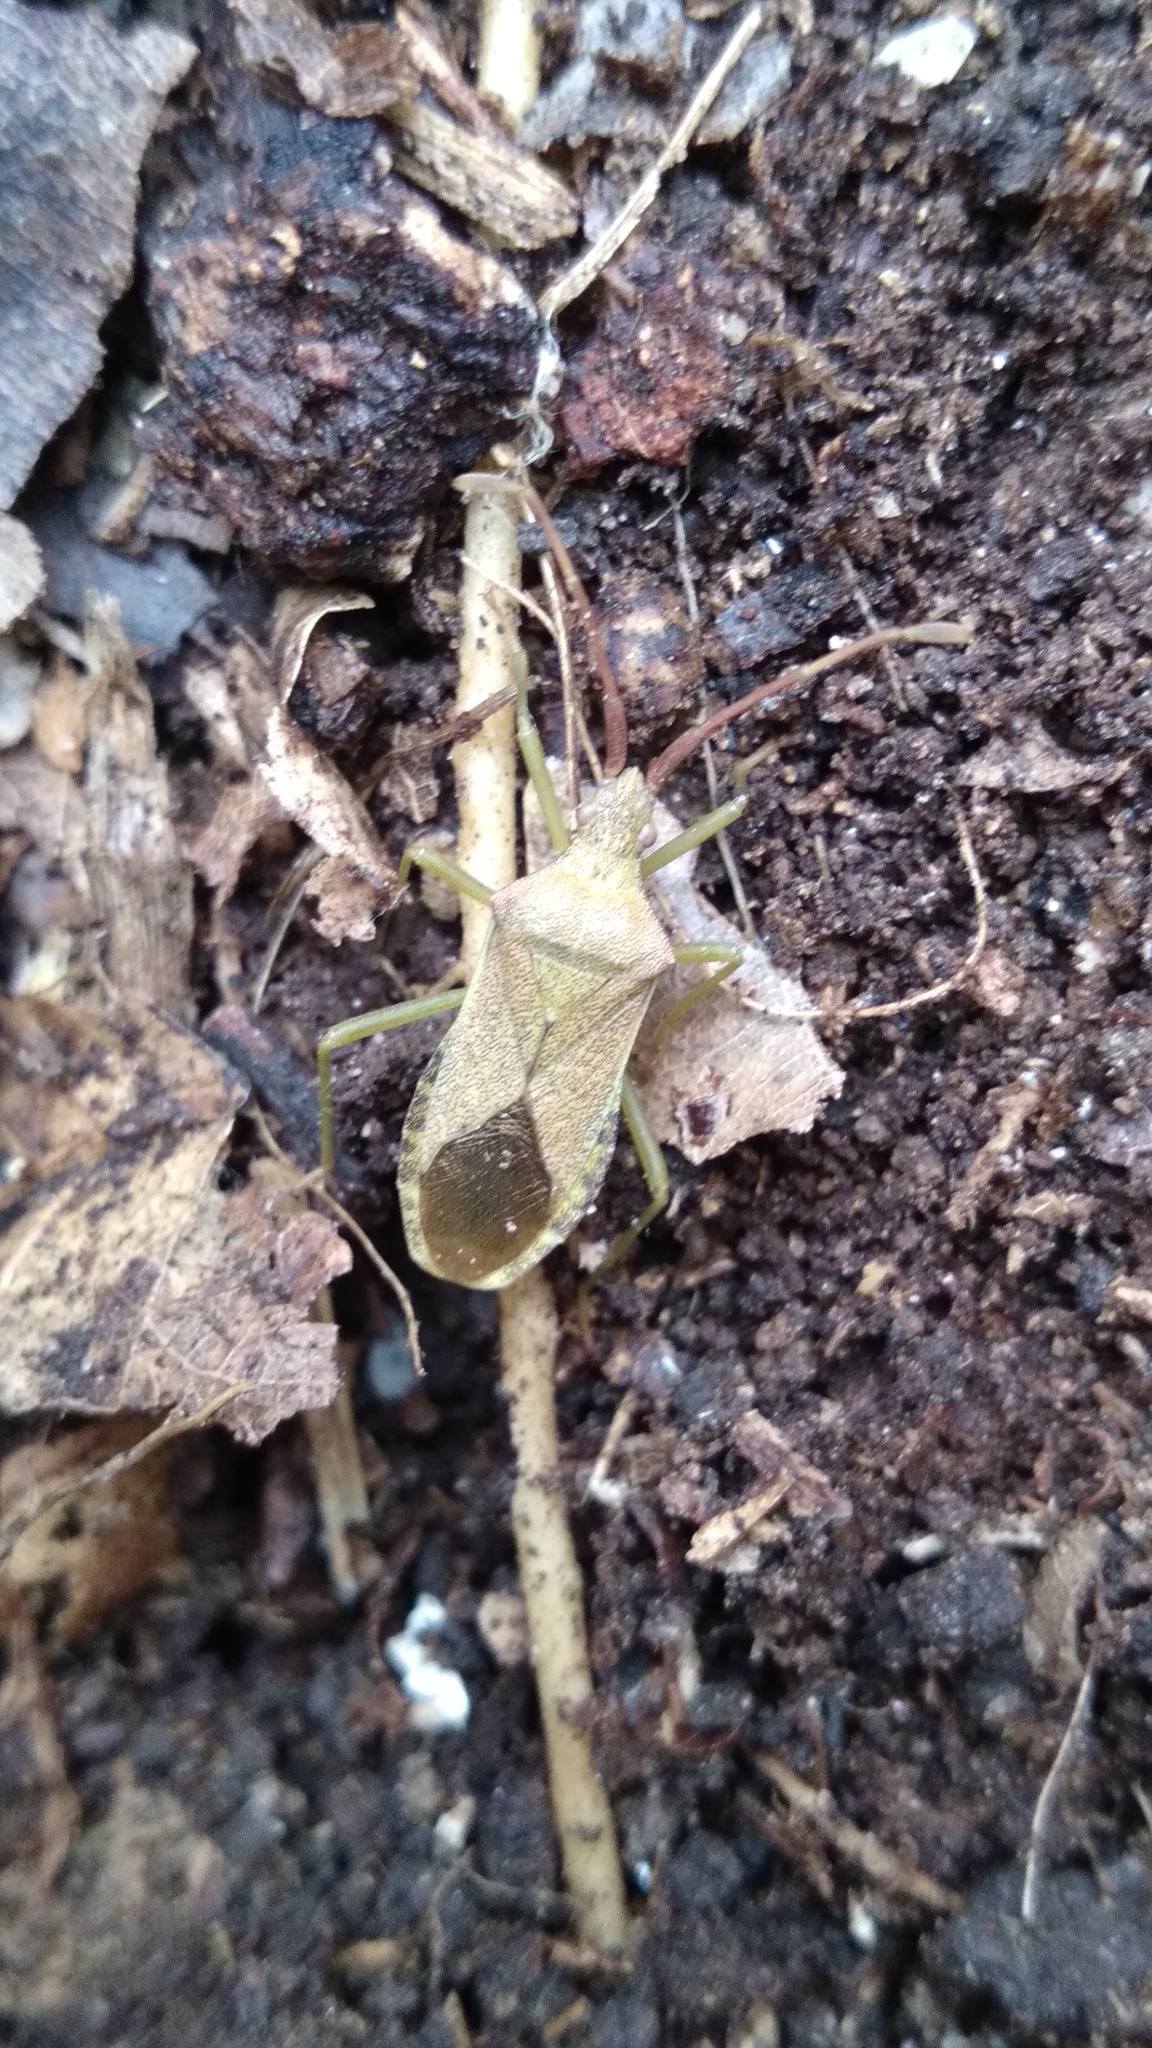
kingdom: Animalia
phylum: Arthropoda
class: Insecta
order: Hemiptera
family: Coreidae
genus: Gonocerus
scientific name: Gonocerus acuteangulatus
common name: Box bug
